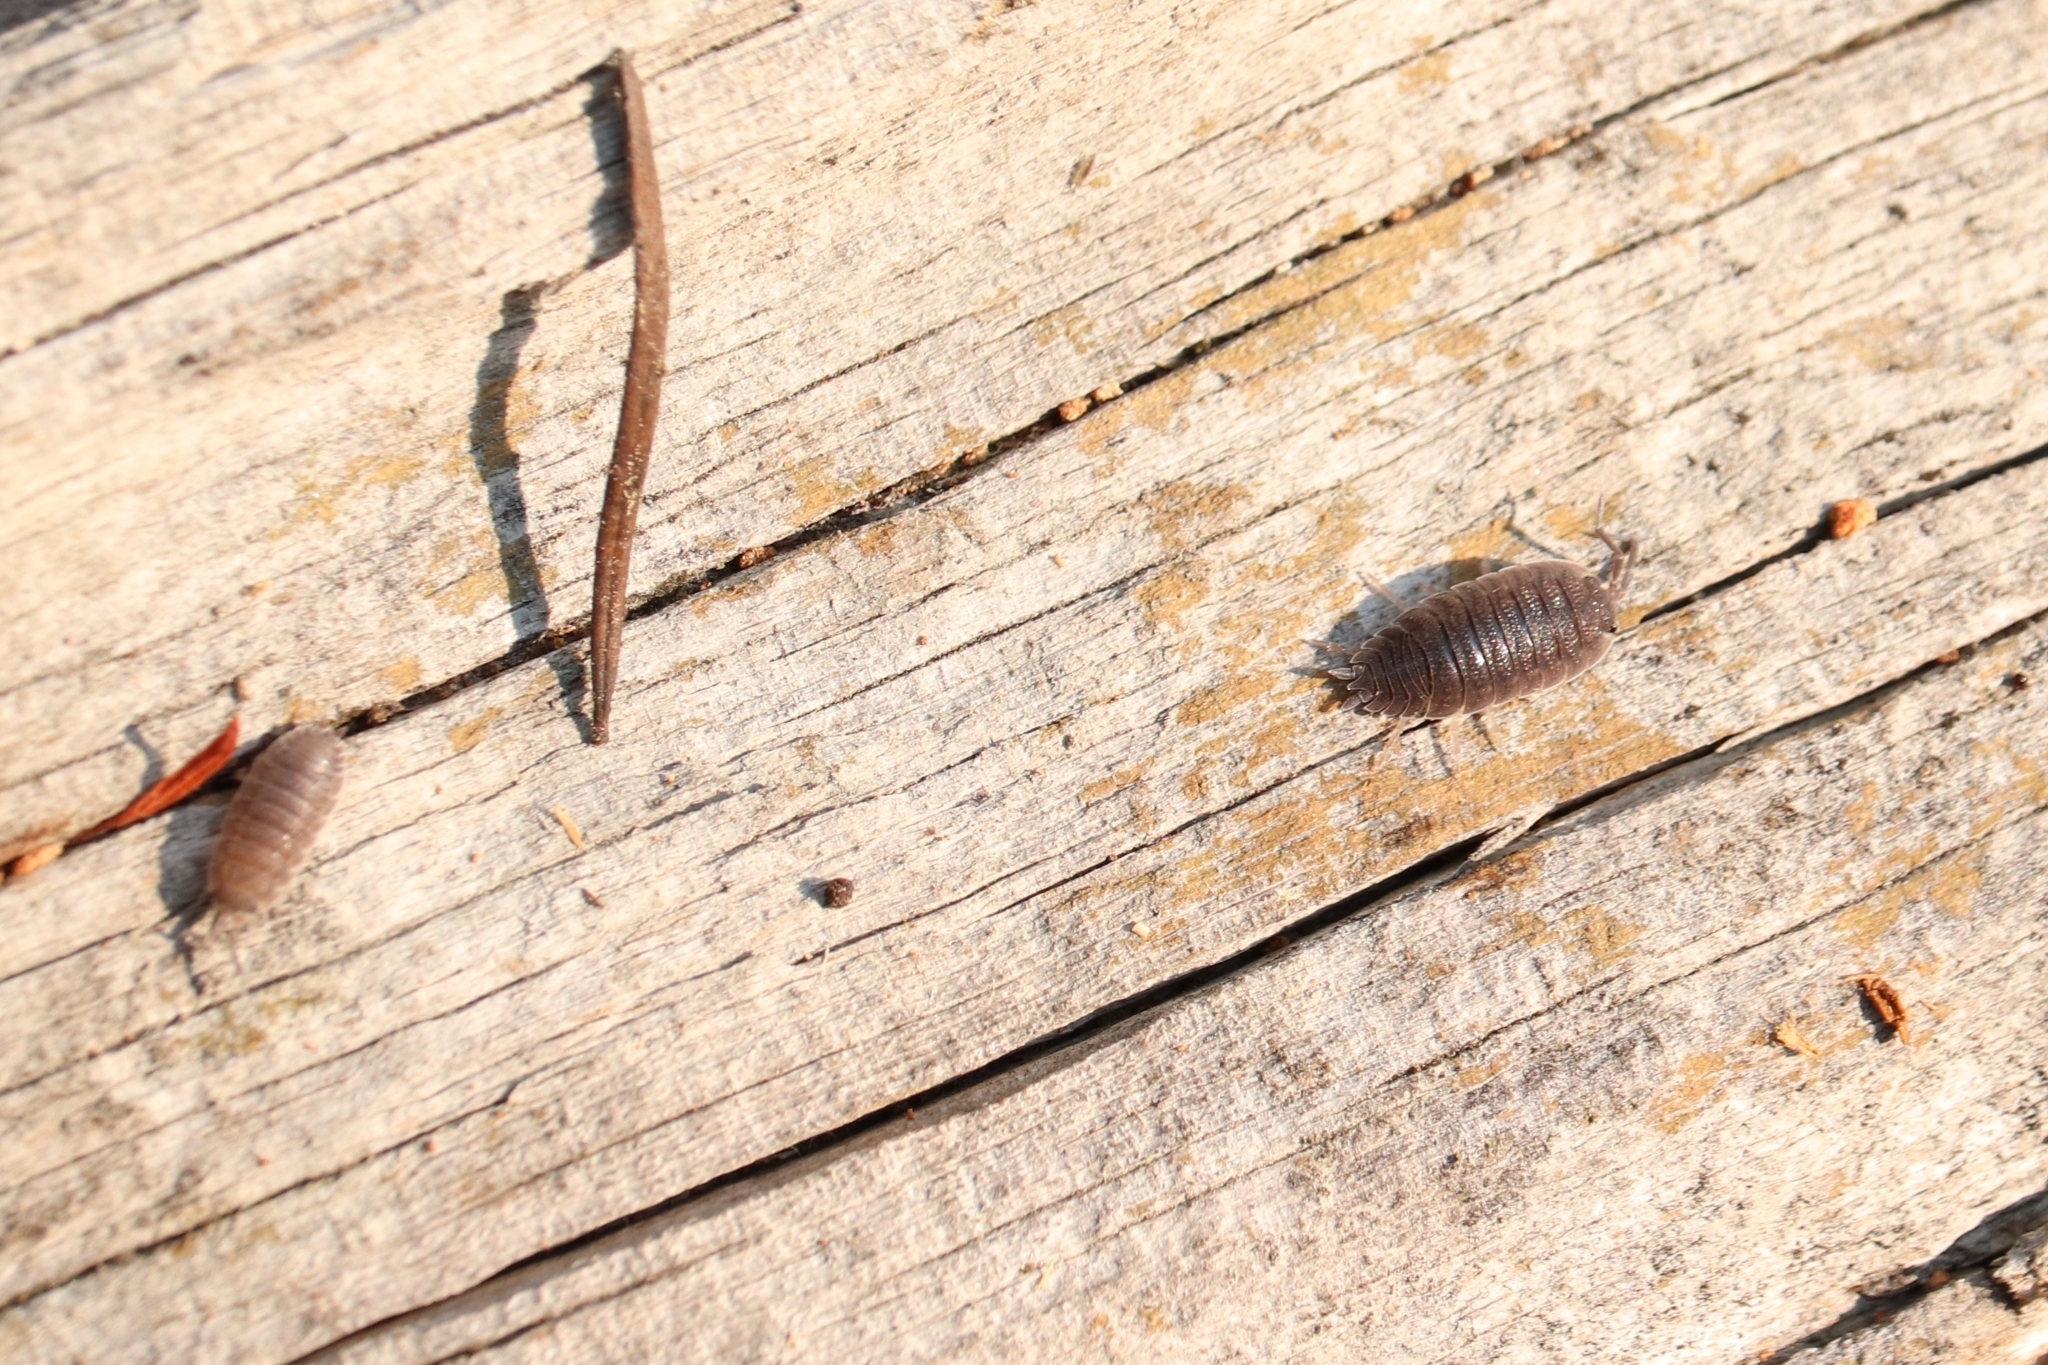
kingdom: Animalia
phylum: Arthropoda
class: Malacostraca
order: Isopoda
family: Porcellionidae
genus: Porcellio
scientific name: Porcellio scaber
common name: Common rough woodlouse
